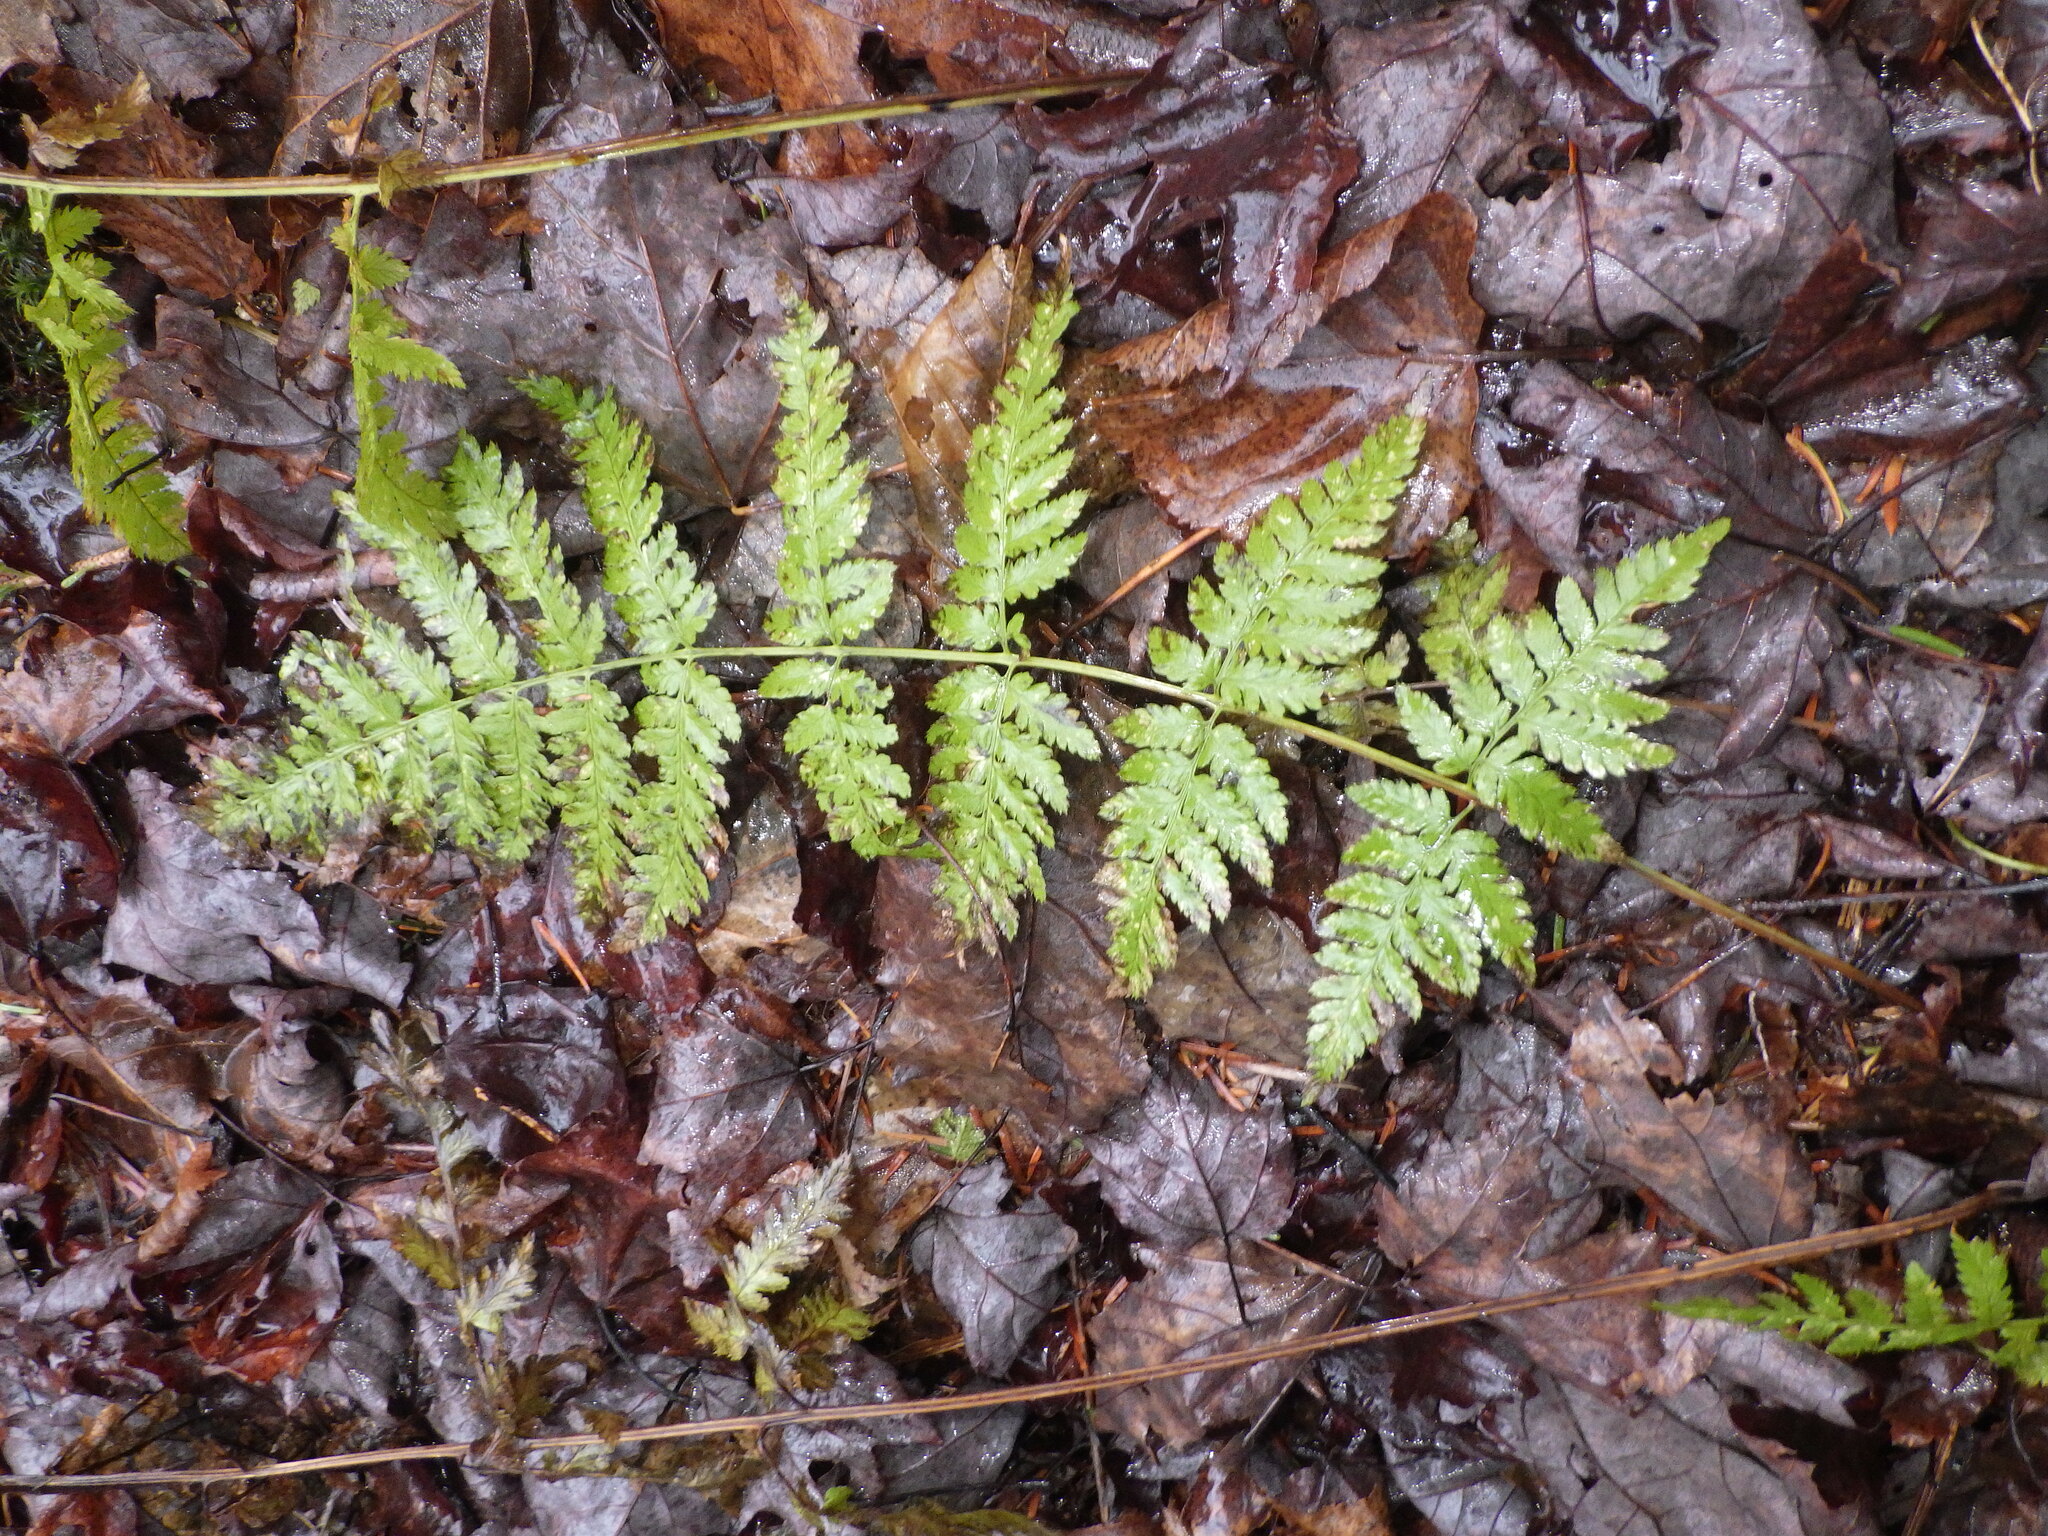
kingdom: Plantae
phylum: Tracheophyta
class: Polypodiopsida
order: Polypodiales
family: Dryopteridaceae
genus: Dryopteris
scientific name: Dryopteris carthusiana
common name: Narrow buckler-fern
